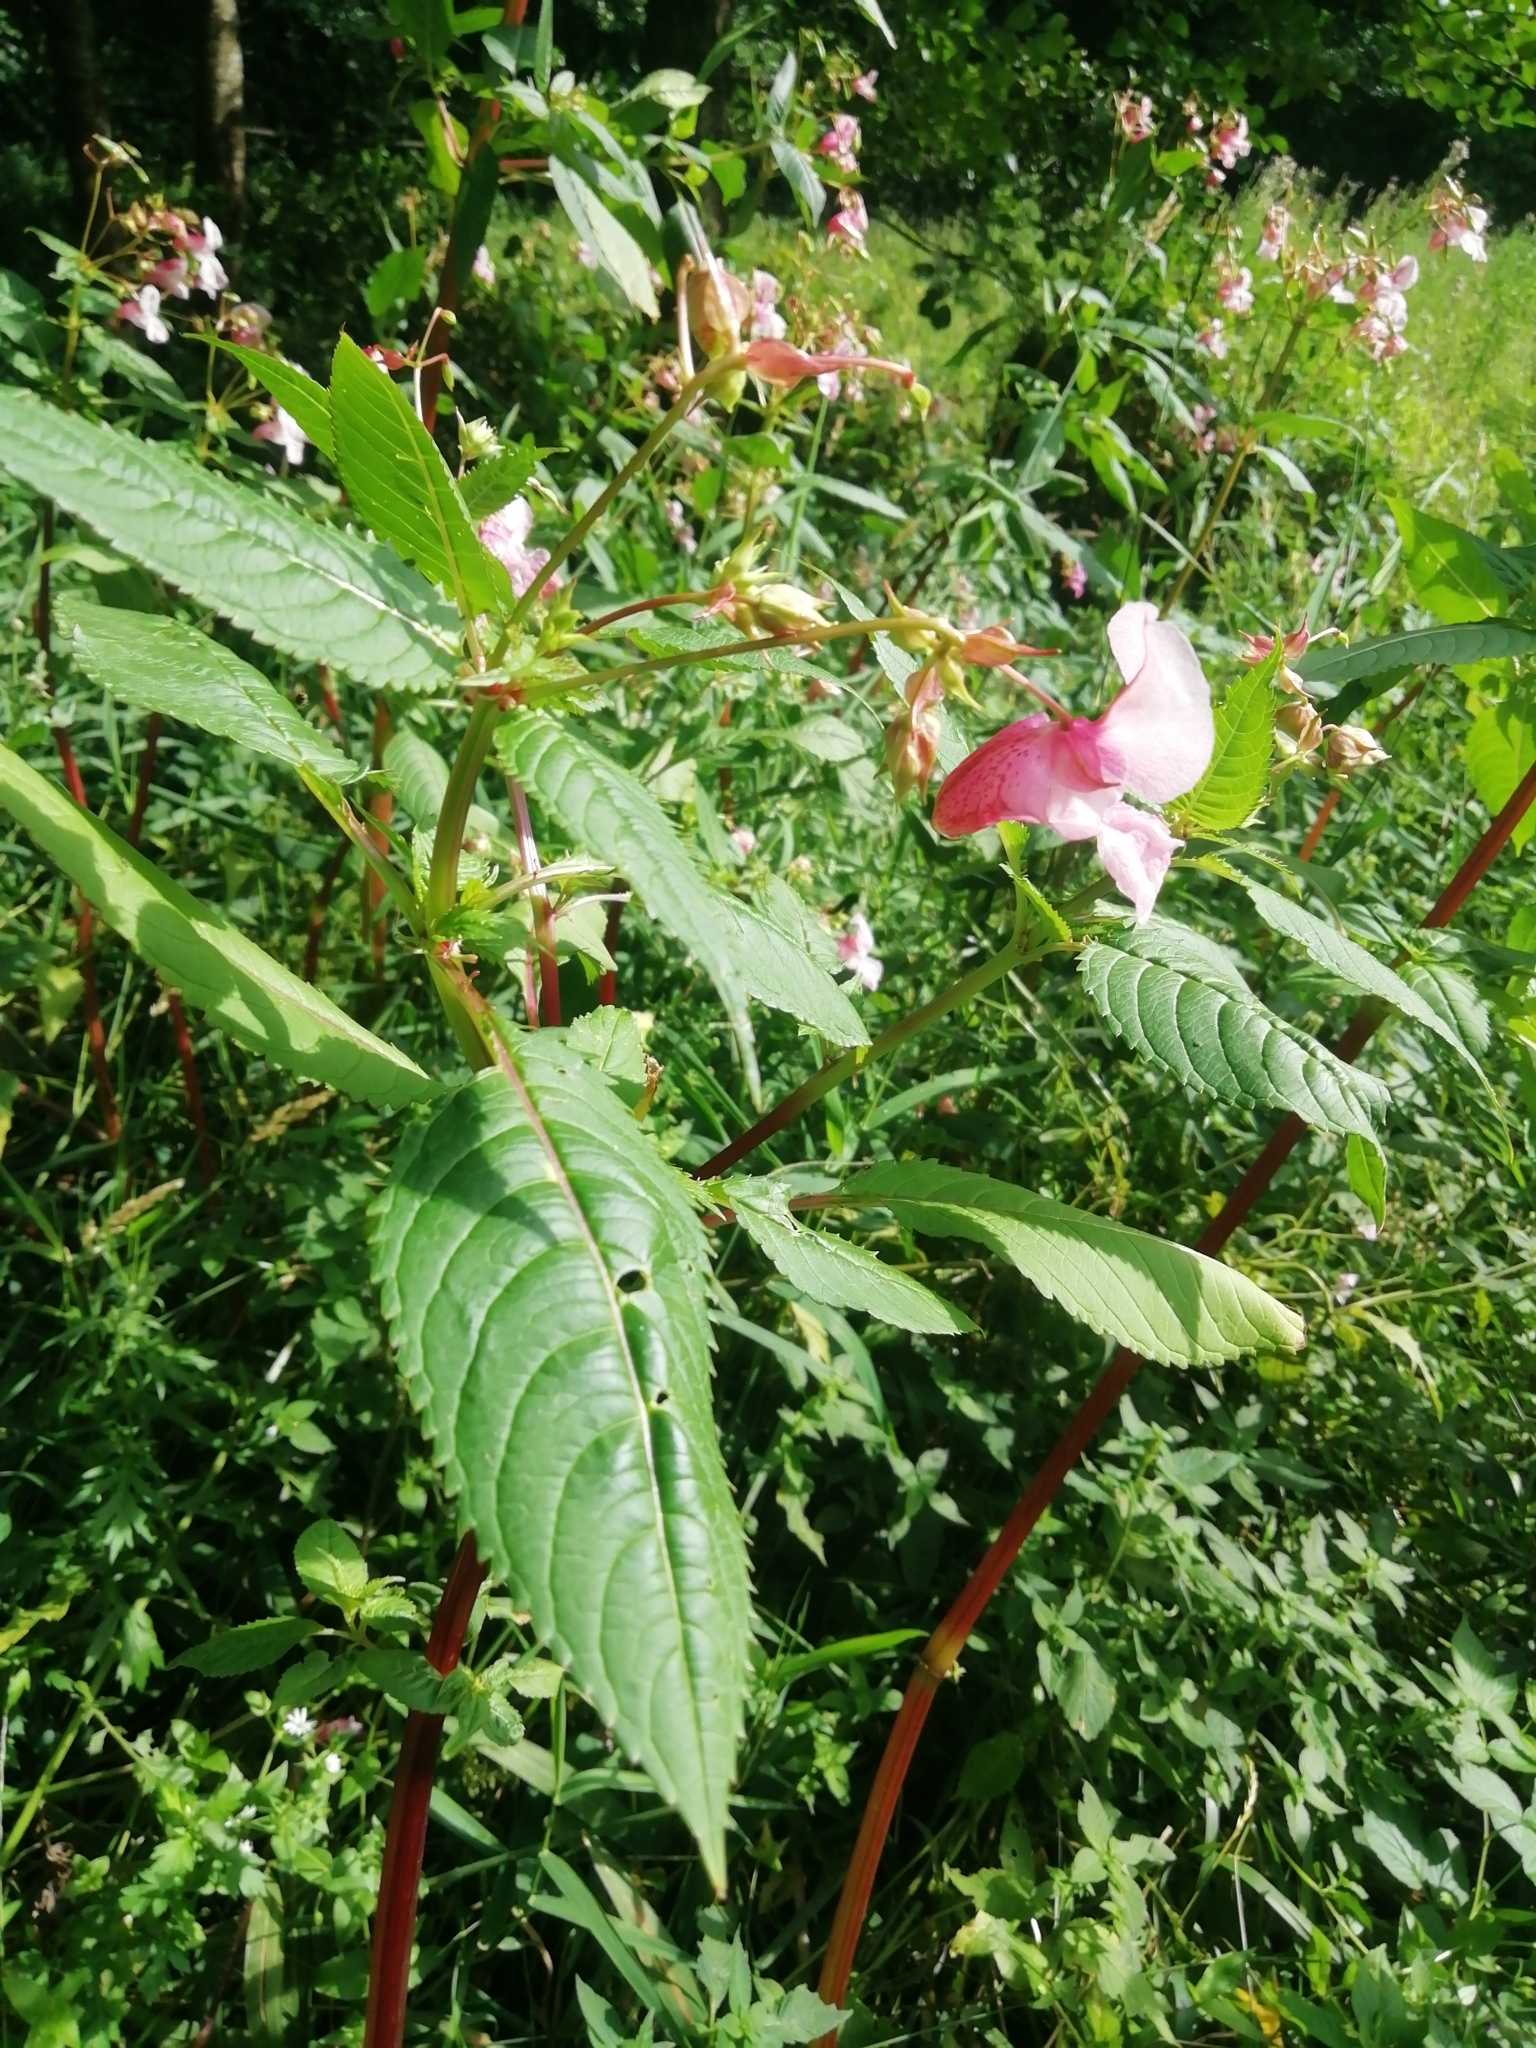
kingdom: Plantae
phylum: Tracheophyta
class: Magnoliopsida
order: Ericales
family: Balsaminaceae
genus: Impatiens
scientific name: Impatiens glandulifera
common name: Himalayan balsam
